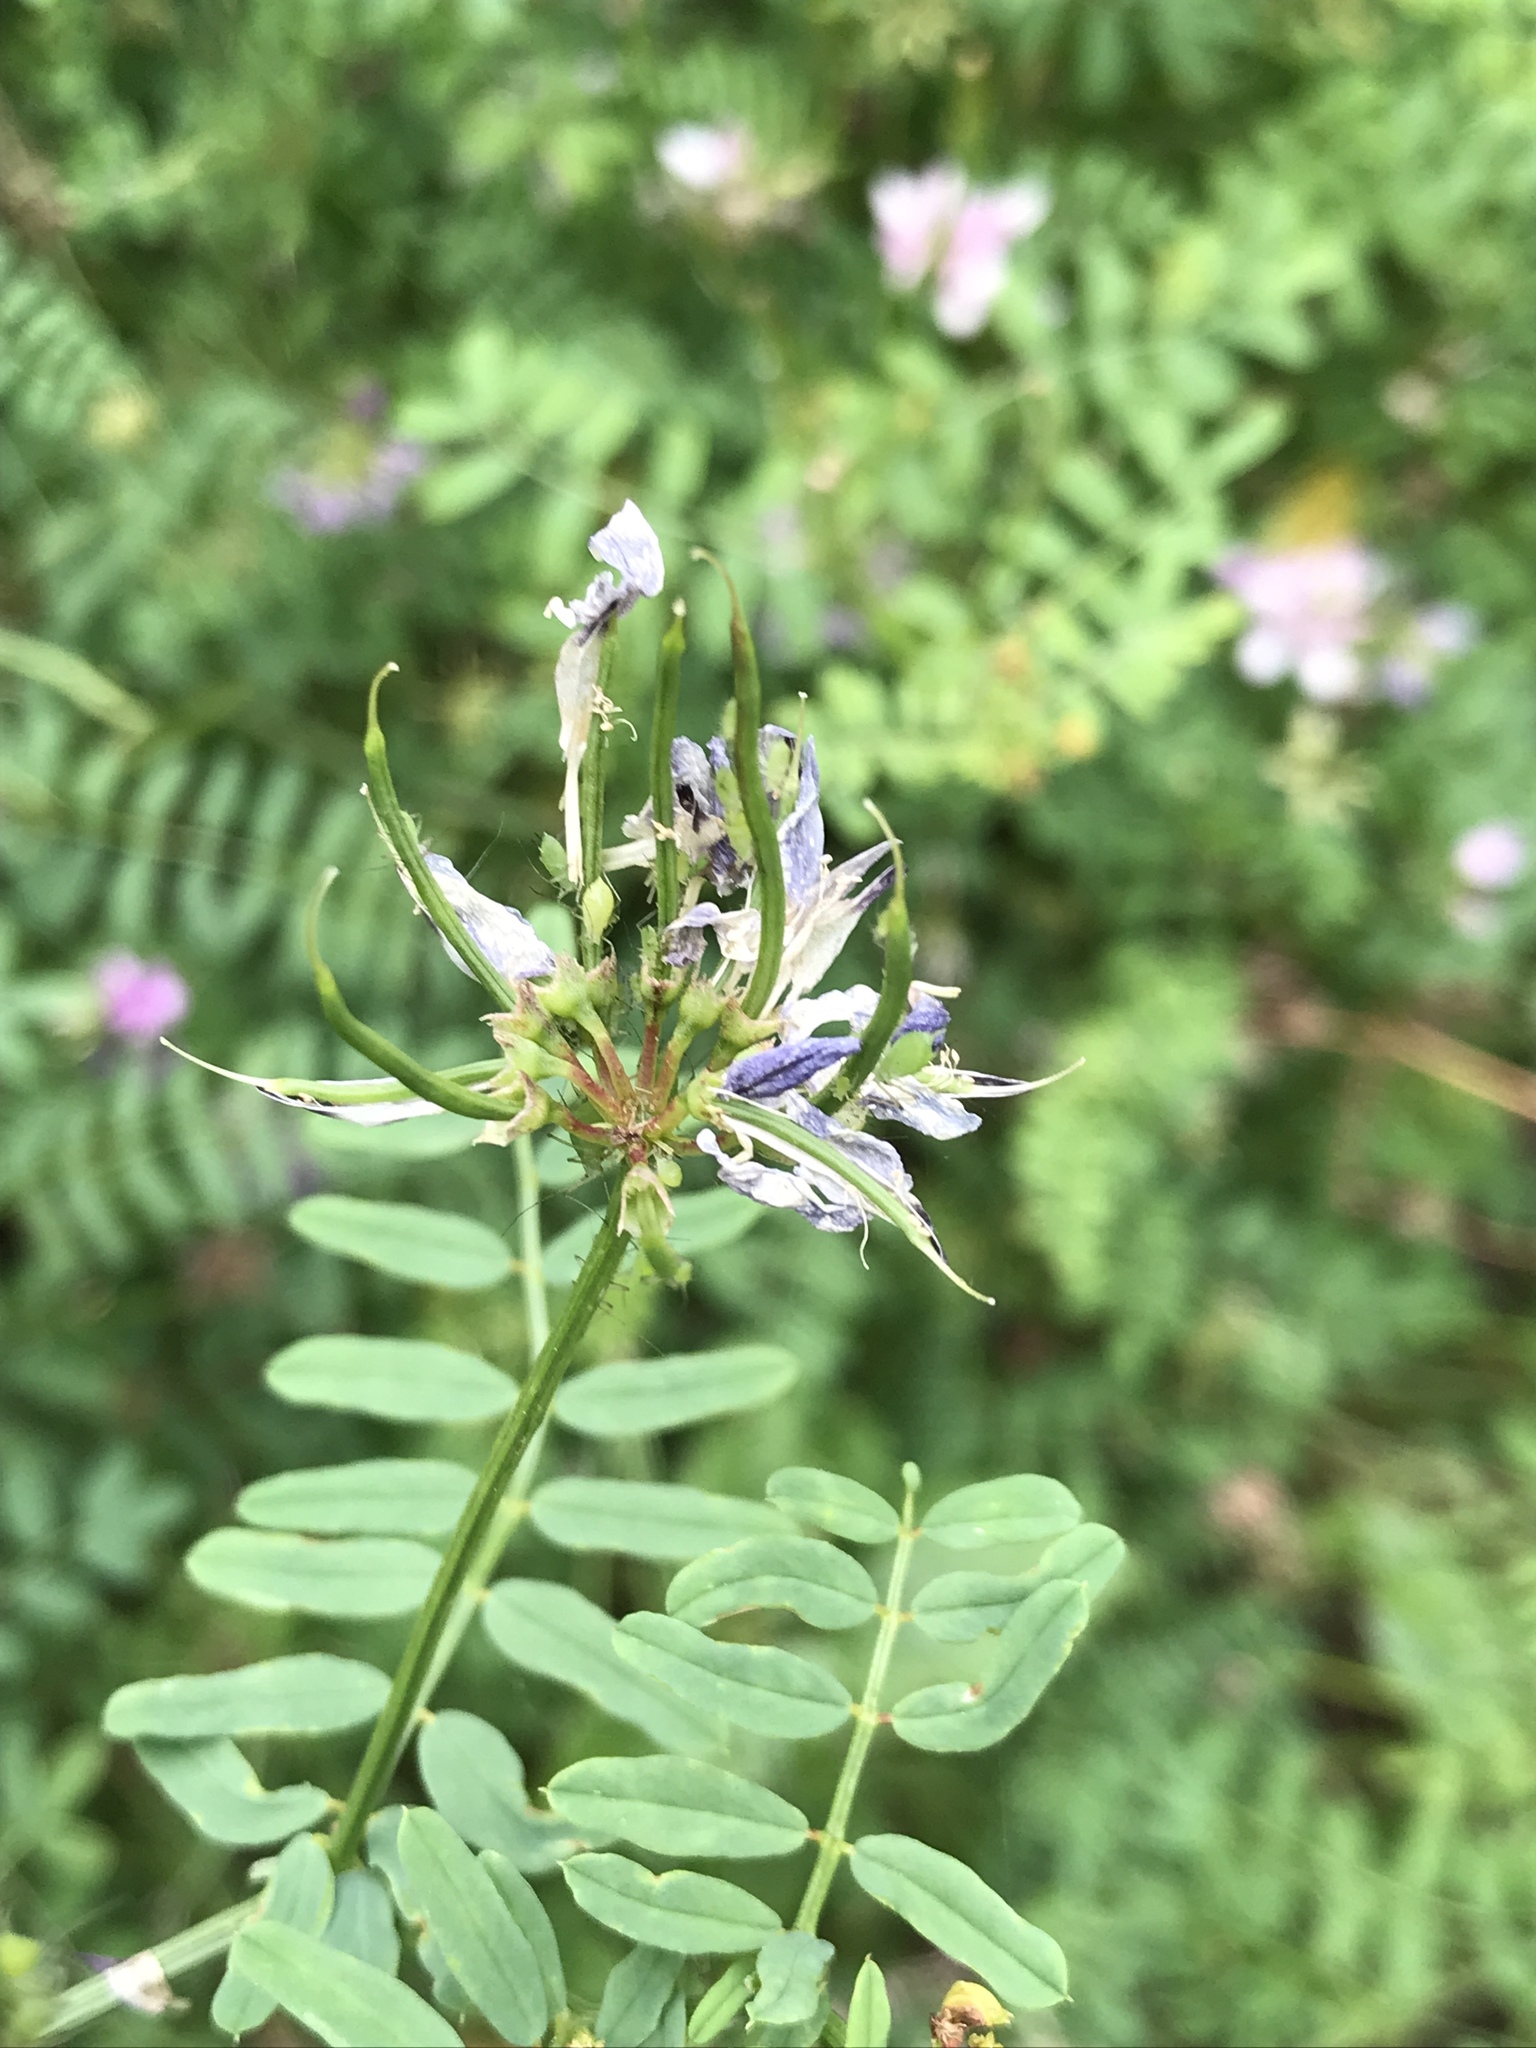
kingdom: Plantae
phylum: Tracheophyta
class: Magnoliopsida
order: Fabales
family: Fabaceae
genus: Coronilla
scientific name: Coronilla varia
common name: Crownvetch
